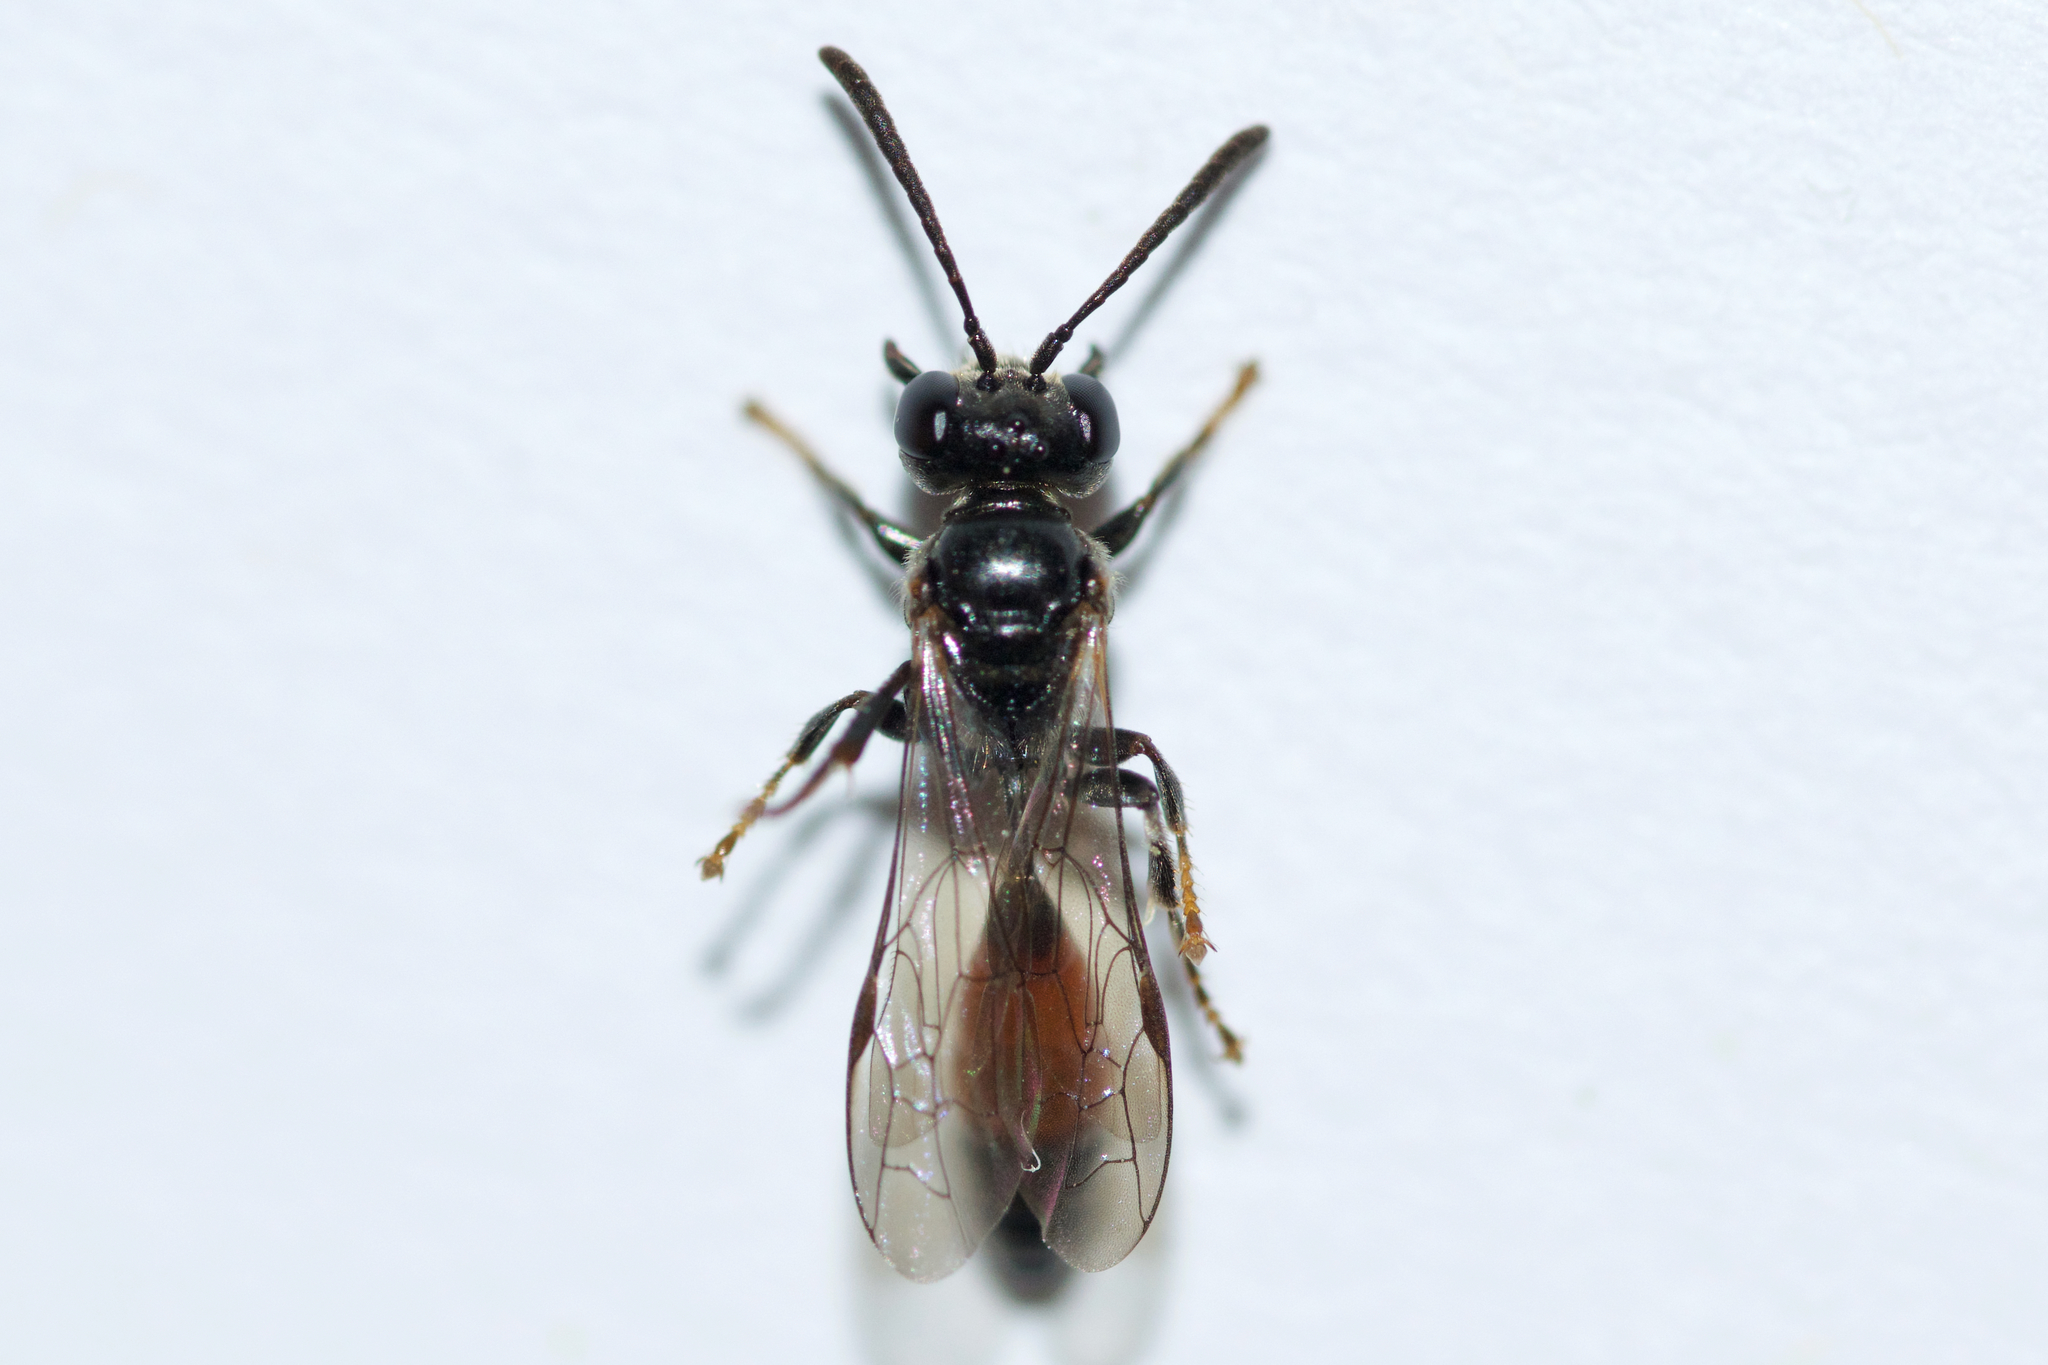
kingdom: Animalia
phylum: Arthropoda
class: Insecta
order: Hymenoptera
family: Crabronidae
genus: Mimesa
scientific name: Mimesa huron
